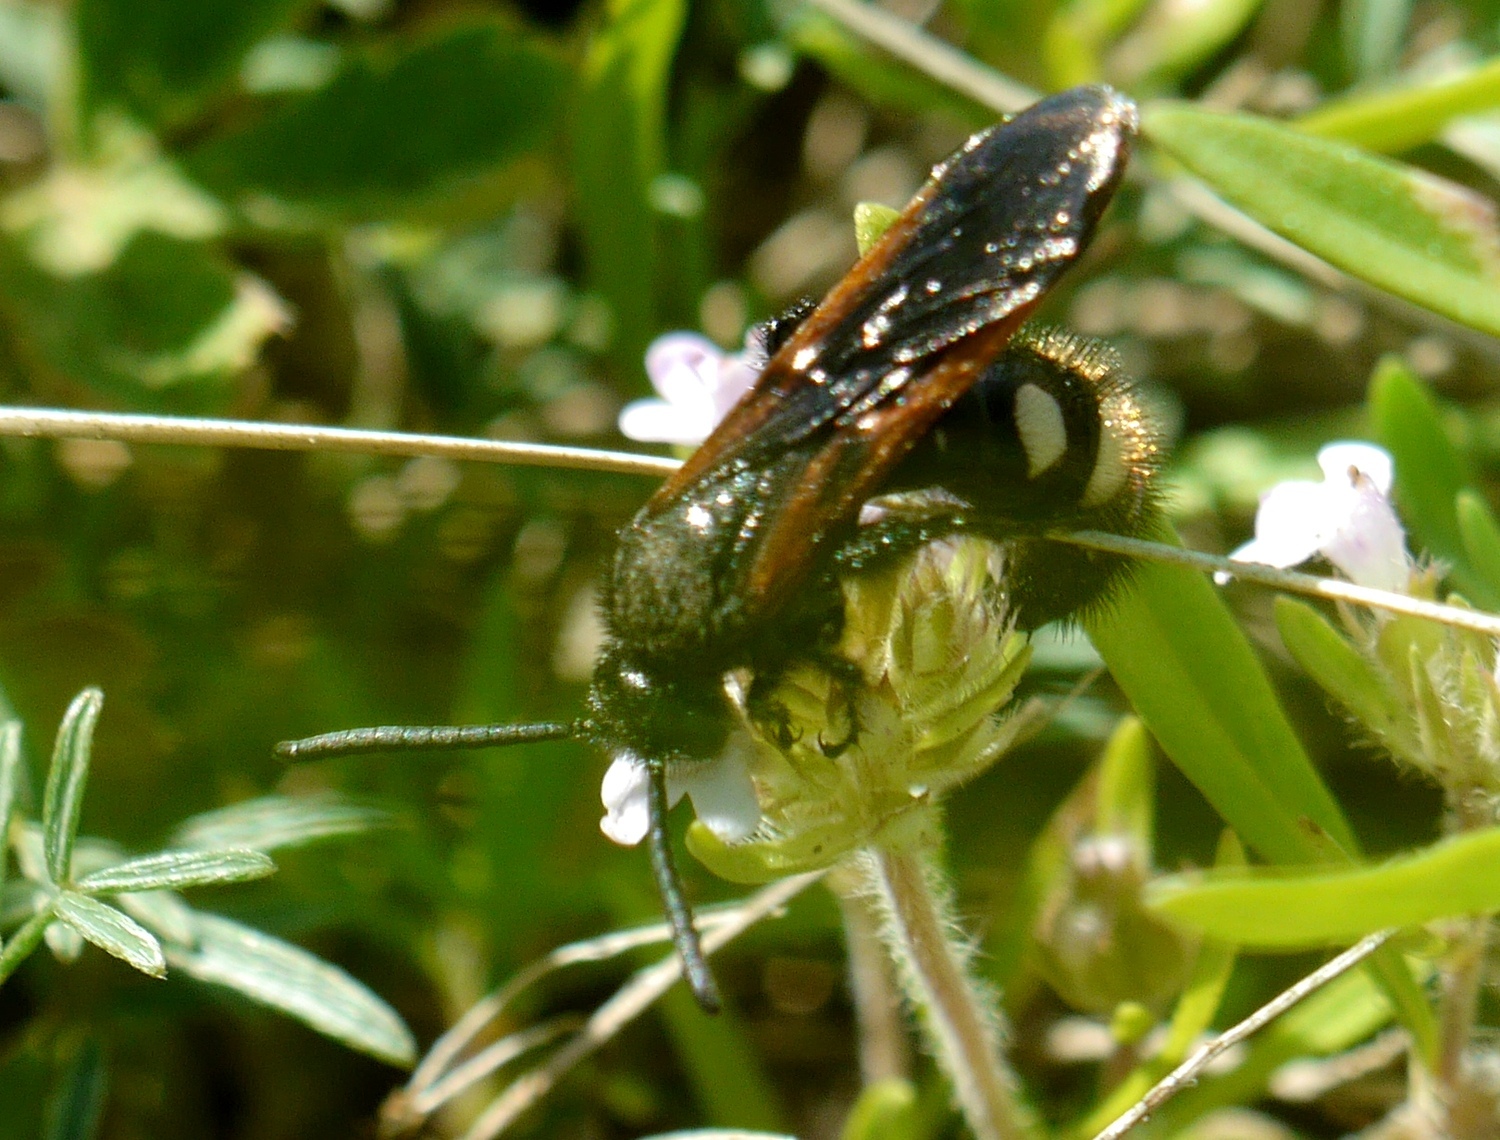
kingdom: Animalia
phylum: Arthropoda
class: Insecta
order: Hymenoptera
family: Vespidae
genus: Vespa
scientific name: Vespa sexmaculata
